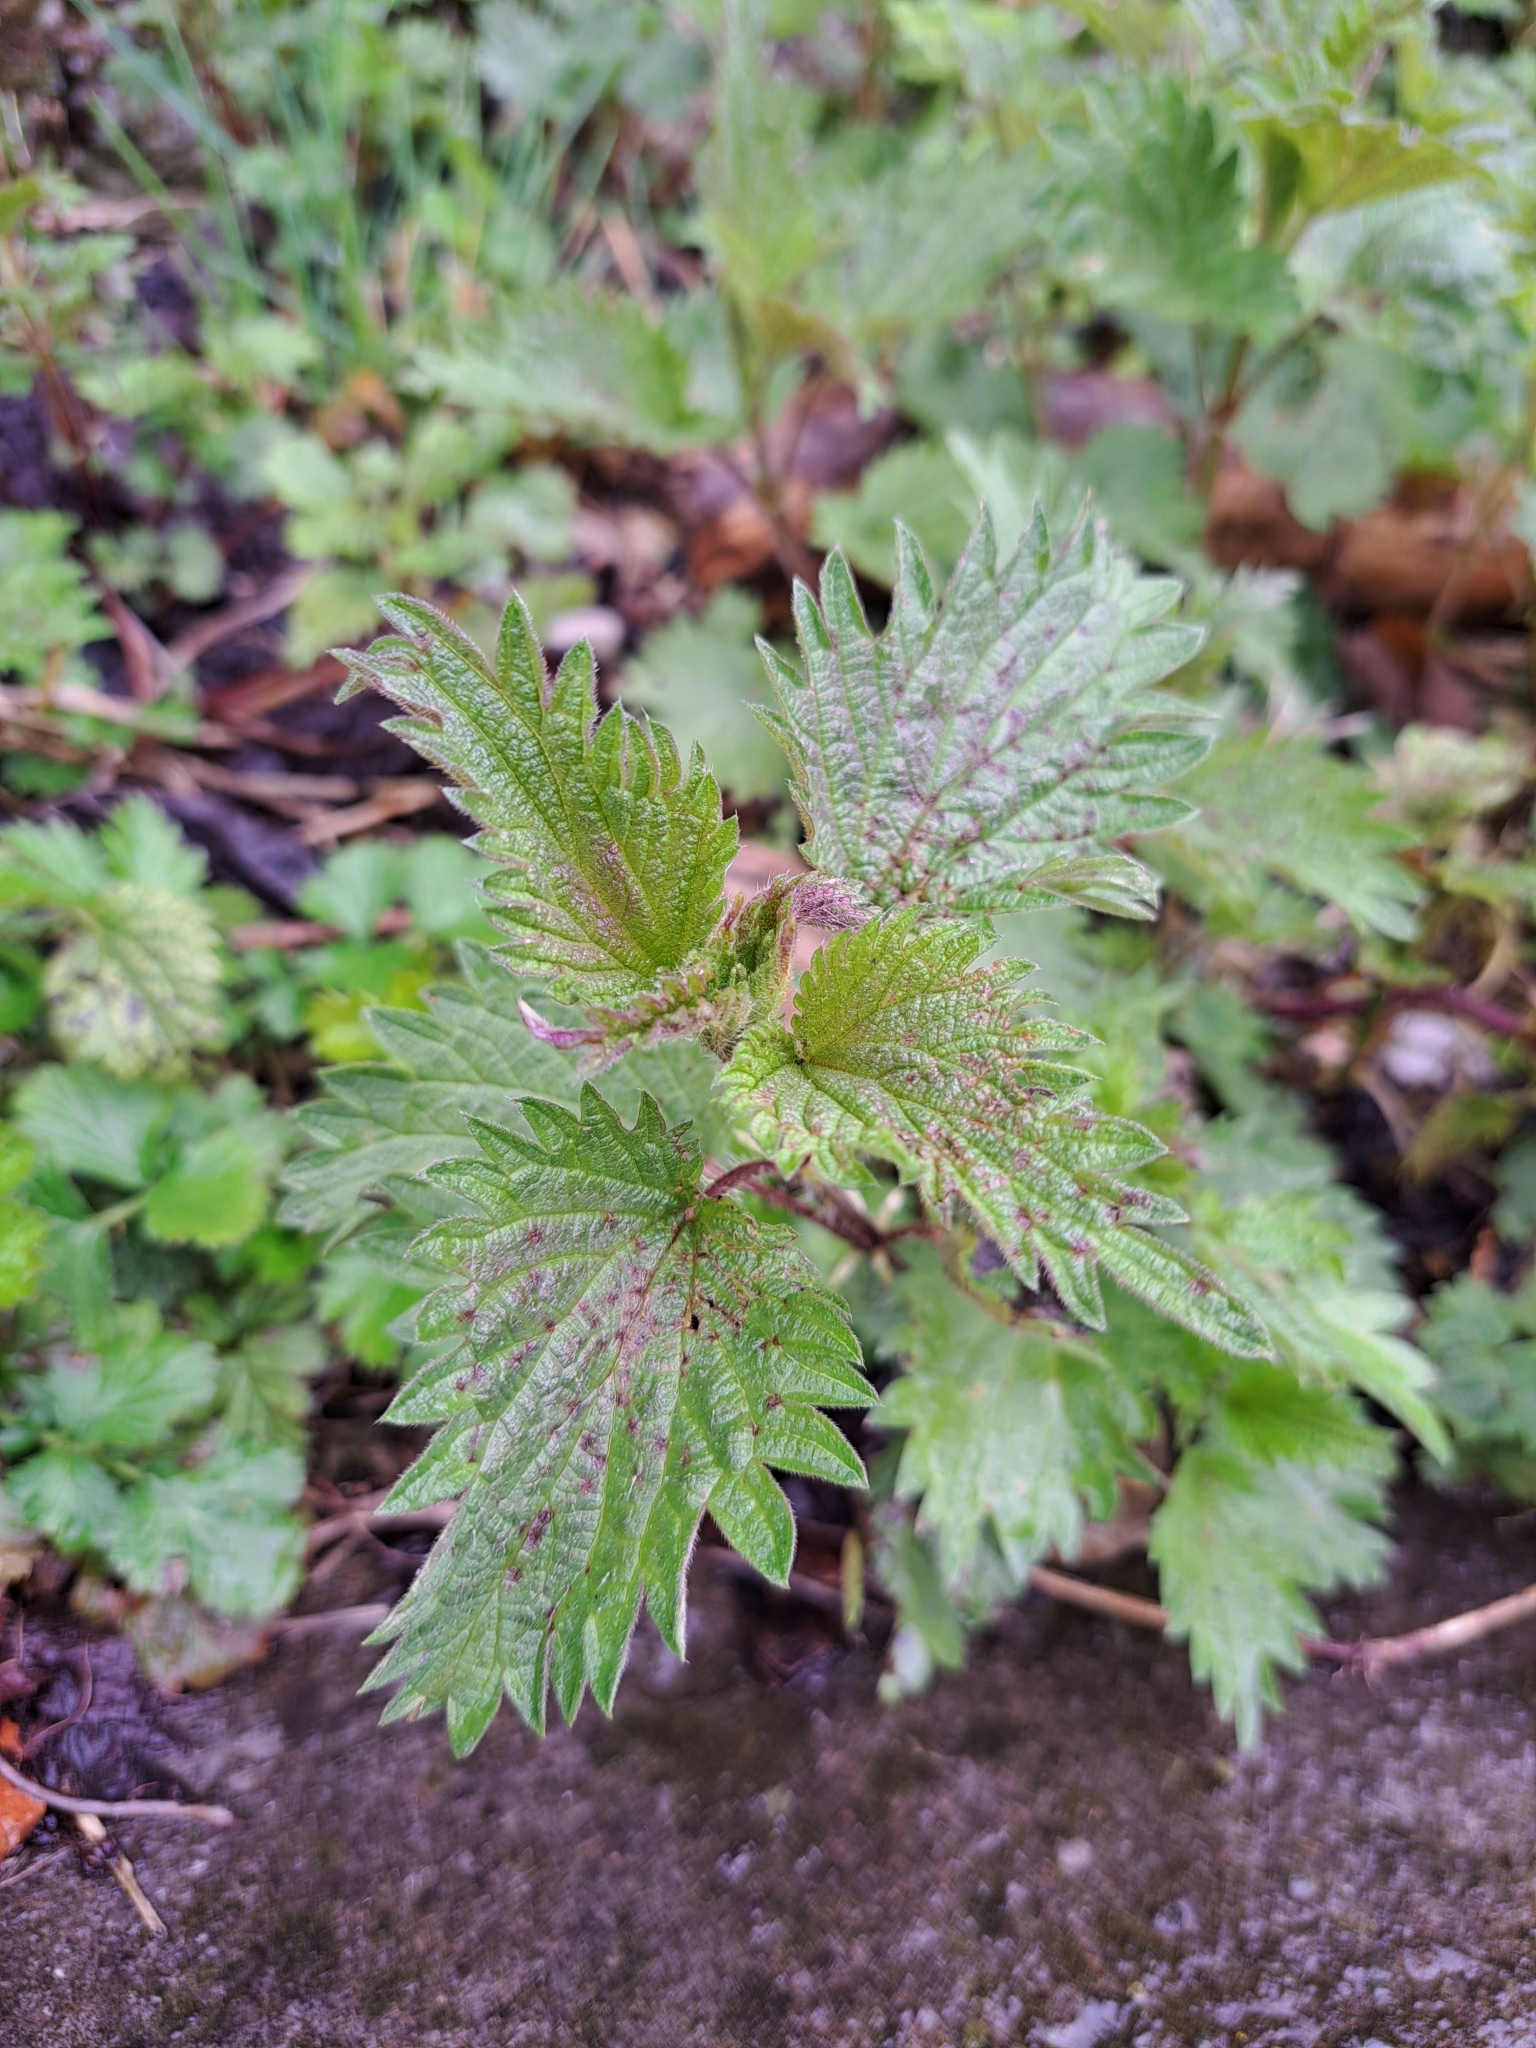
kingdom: Plantae
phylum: Tracheophyta
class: Magnoliopsida
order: Rosales
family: Urticaceae
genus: Urtica
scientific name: Urtica dioica
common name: Common nettle
